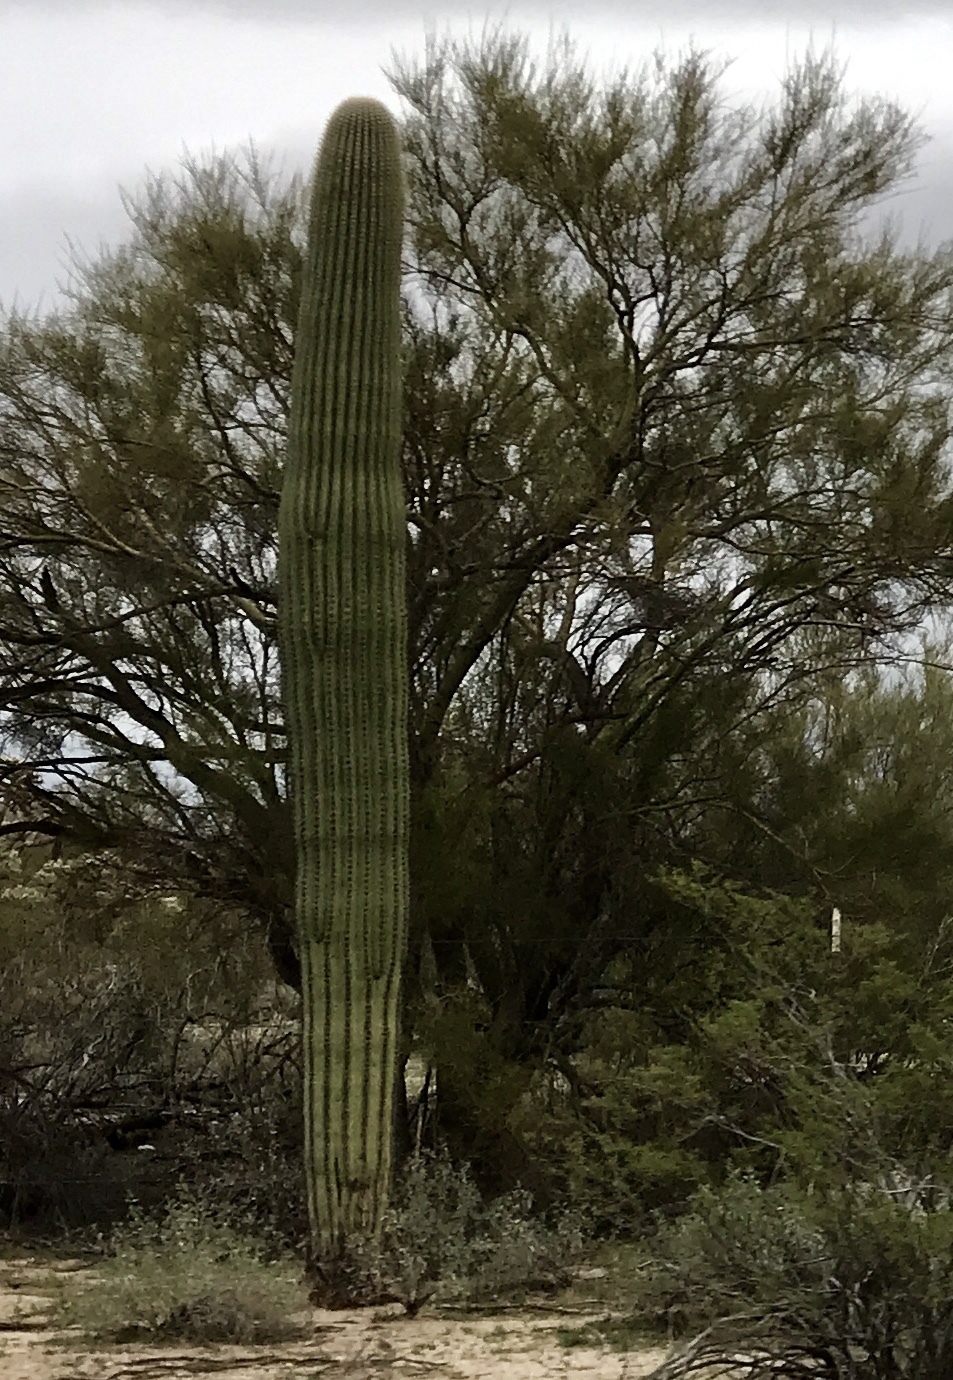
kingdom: Plantae
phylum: Tracheophyta
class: Magnoliopsida
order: Caryophyllales
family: Cactaceae
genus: Carnegiea
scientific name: Carnegiea gigantea
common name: Saguaro
